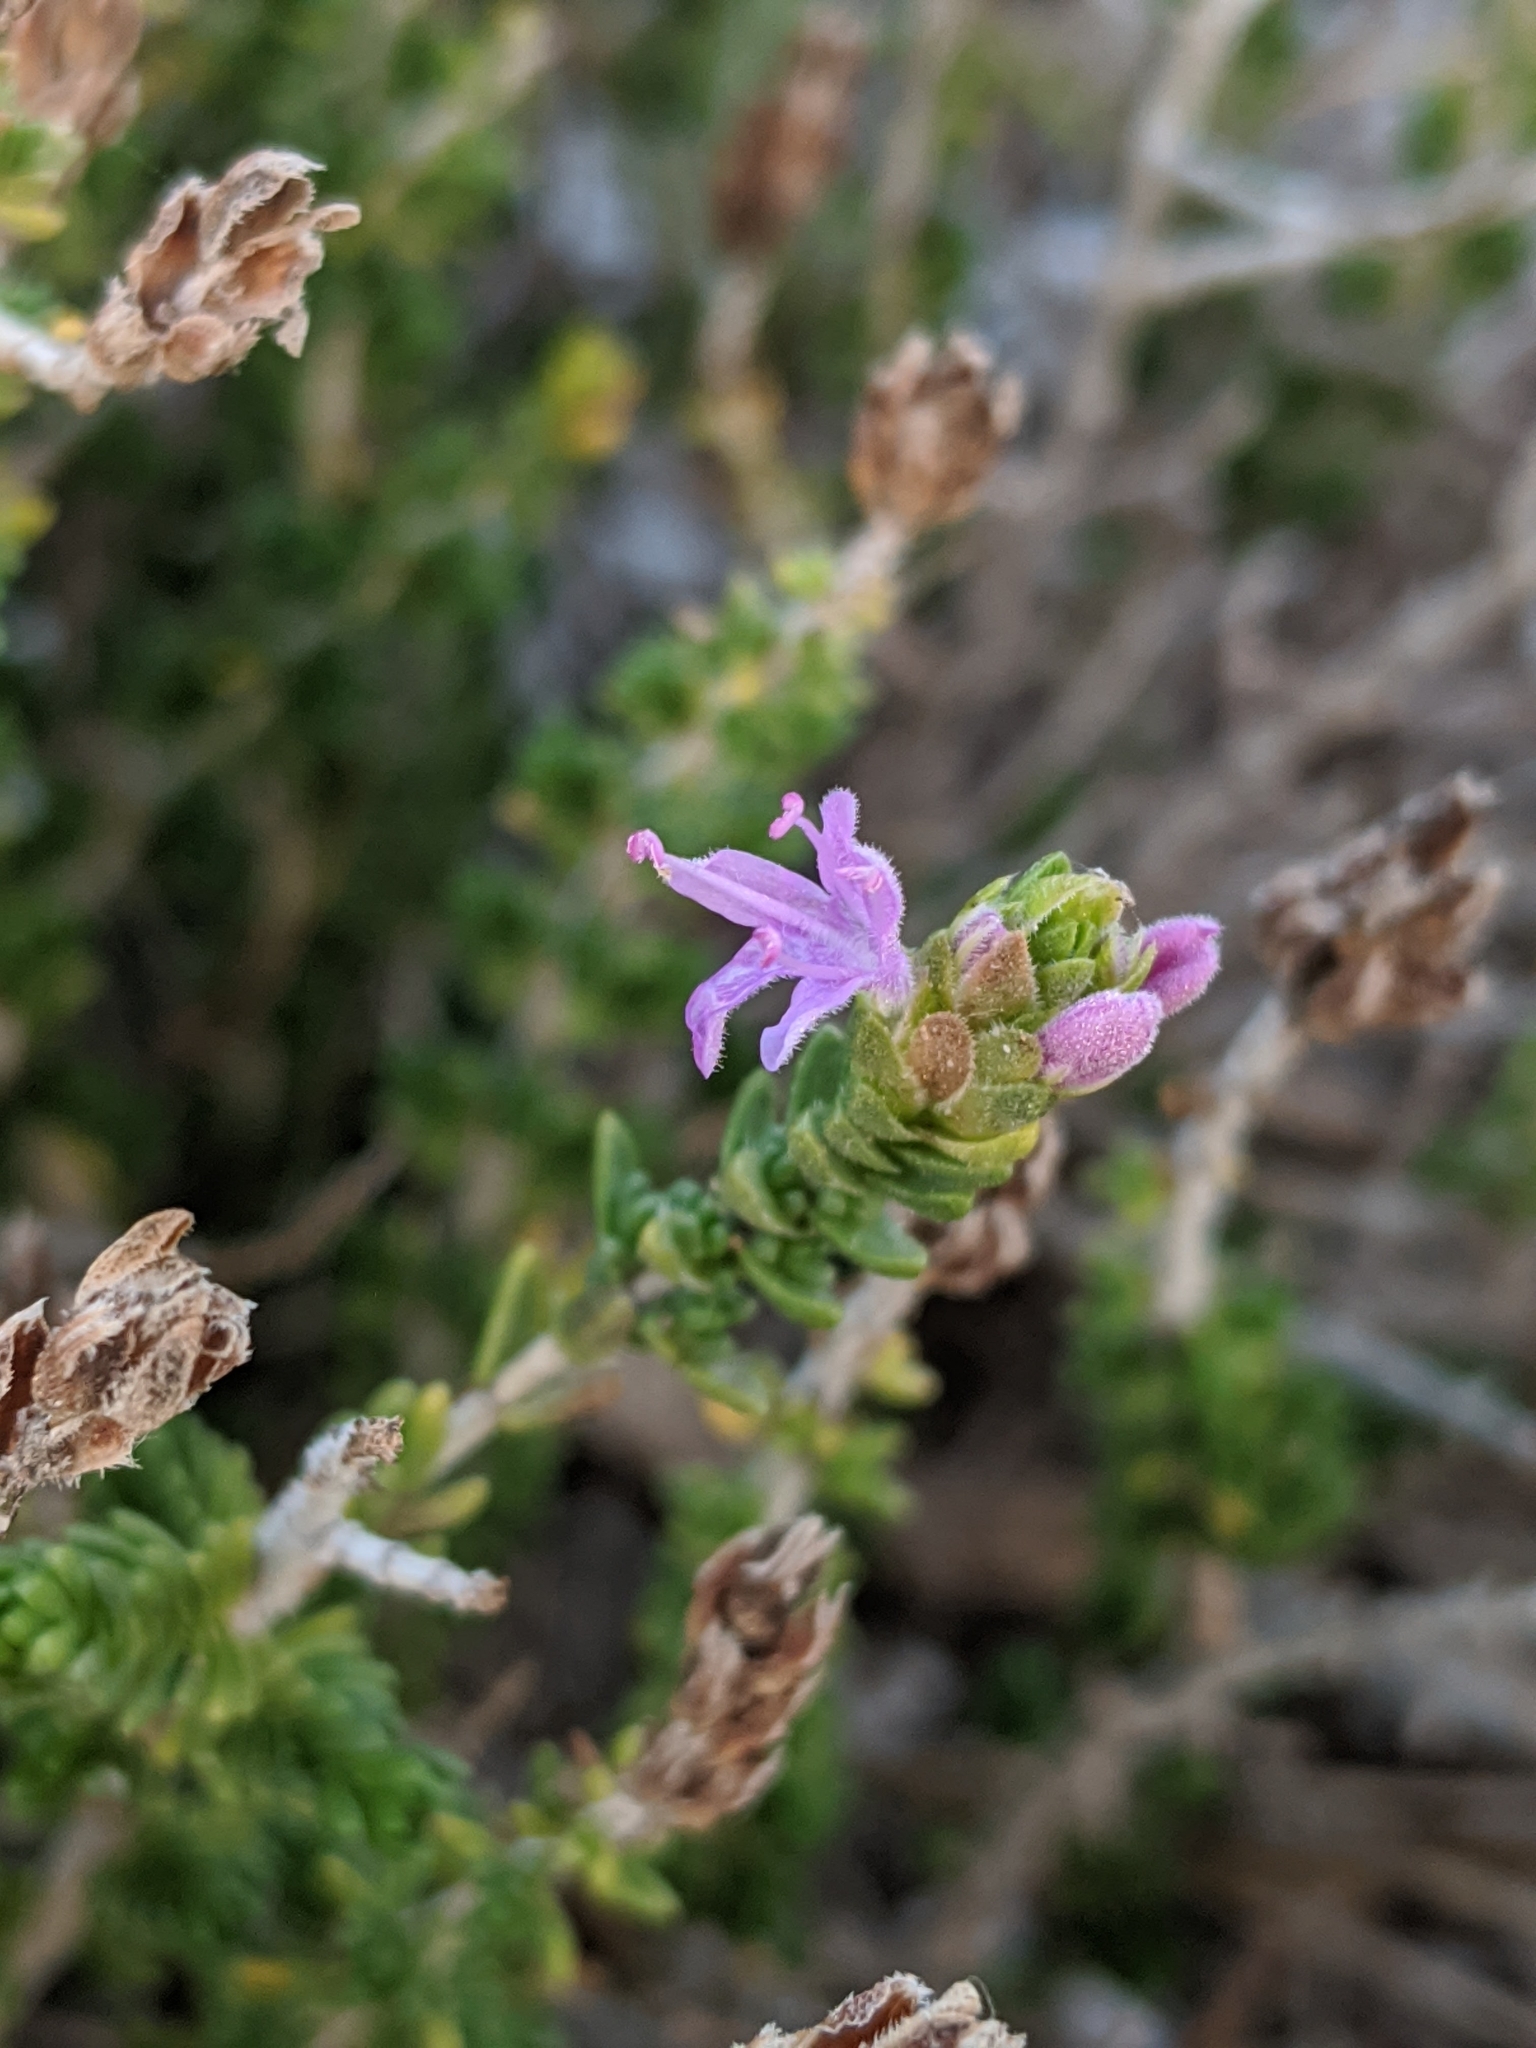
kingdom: Plantae
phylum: Tracheophyta
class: Magnoliopsida
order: Lamiales
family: Lamiaceae
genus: Thymbra
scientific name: Thymbra capitata
